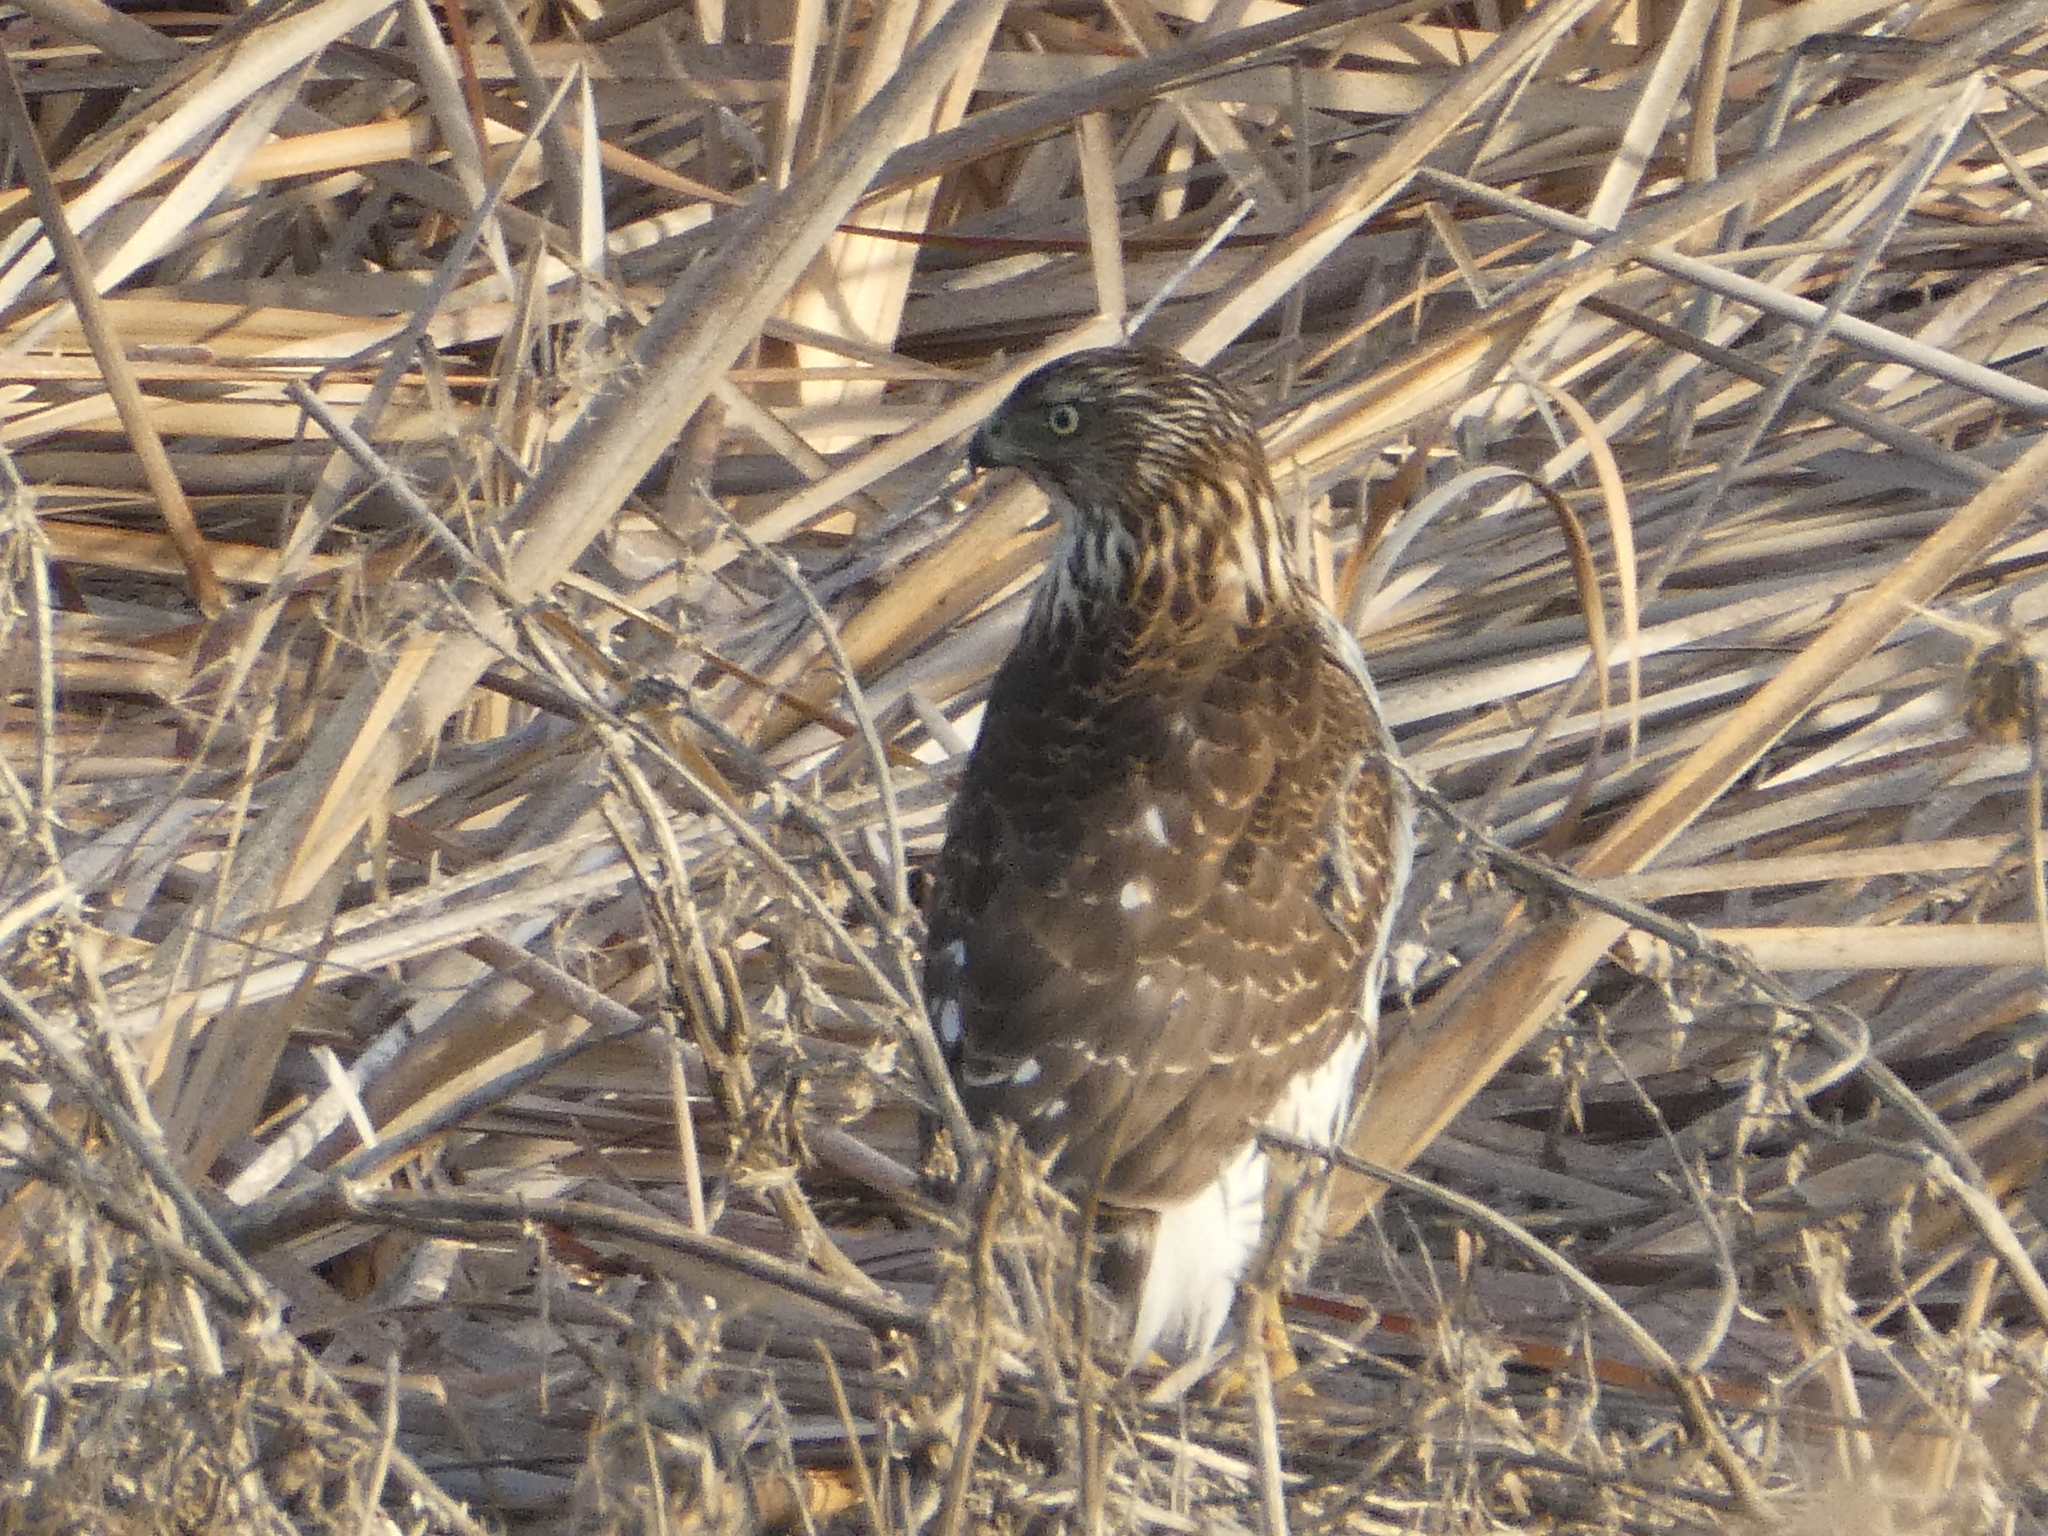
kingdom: Animalia
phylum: Chordata
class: Aves
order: Accipitriformes
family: Accipitridae
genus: Accipiter
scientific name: Accipiter cooperii
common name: Cooper's hawk
